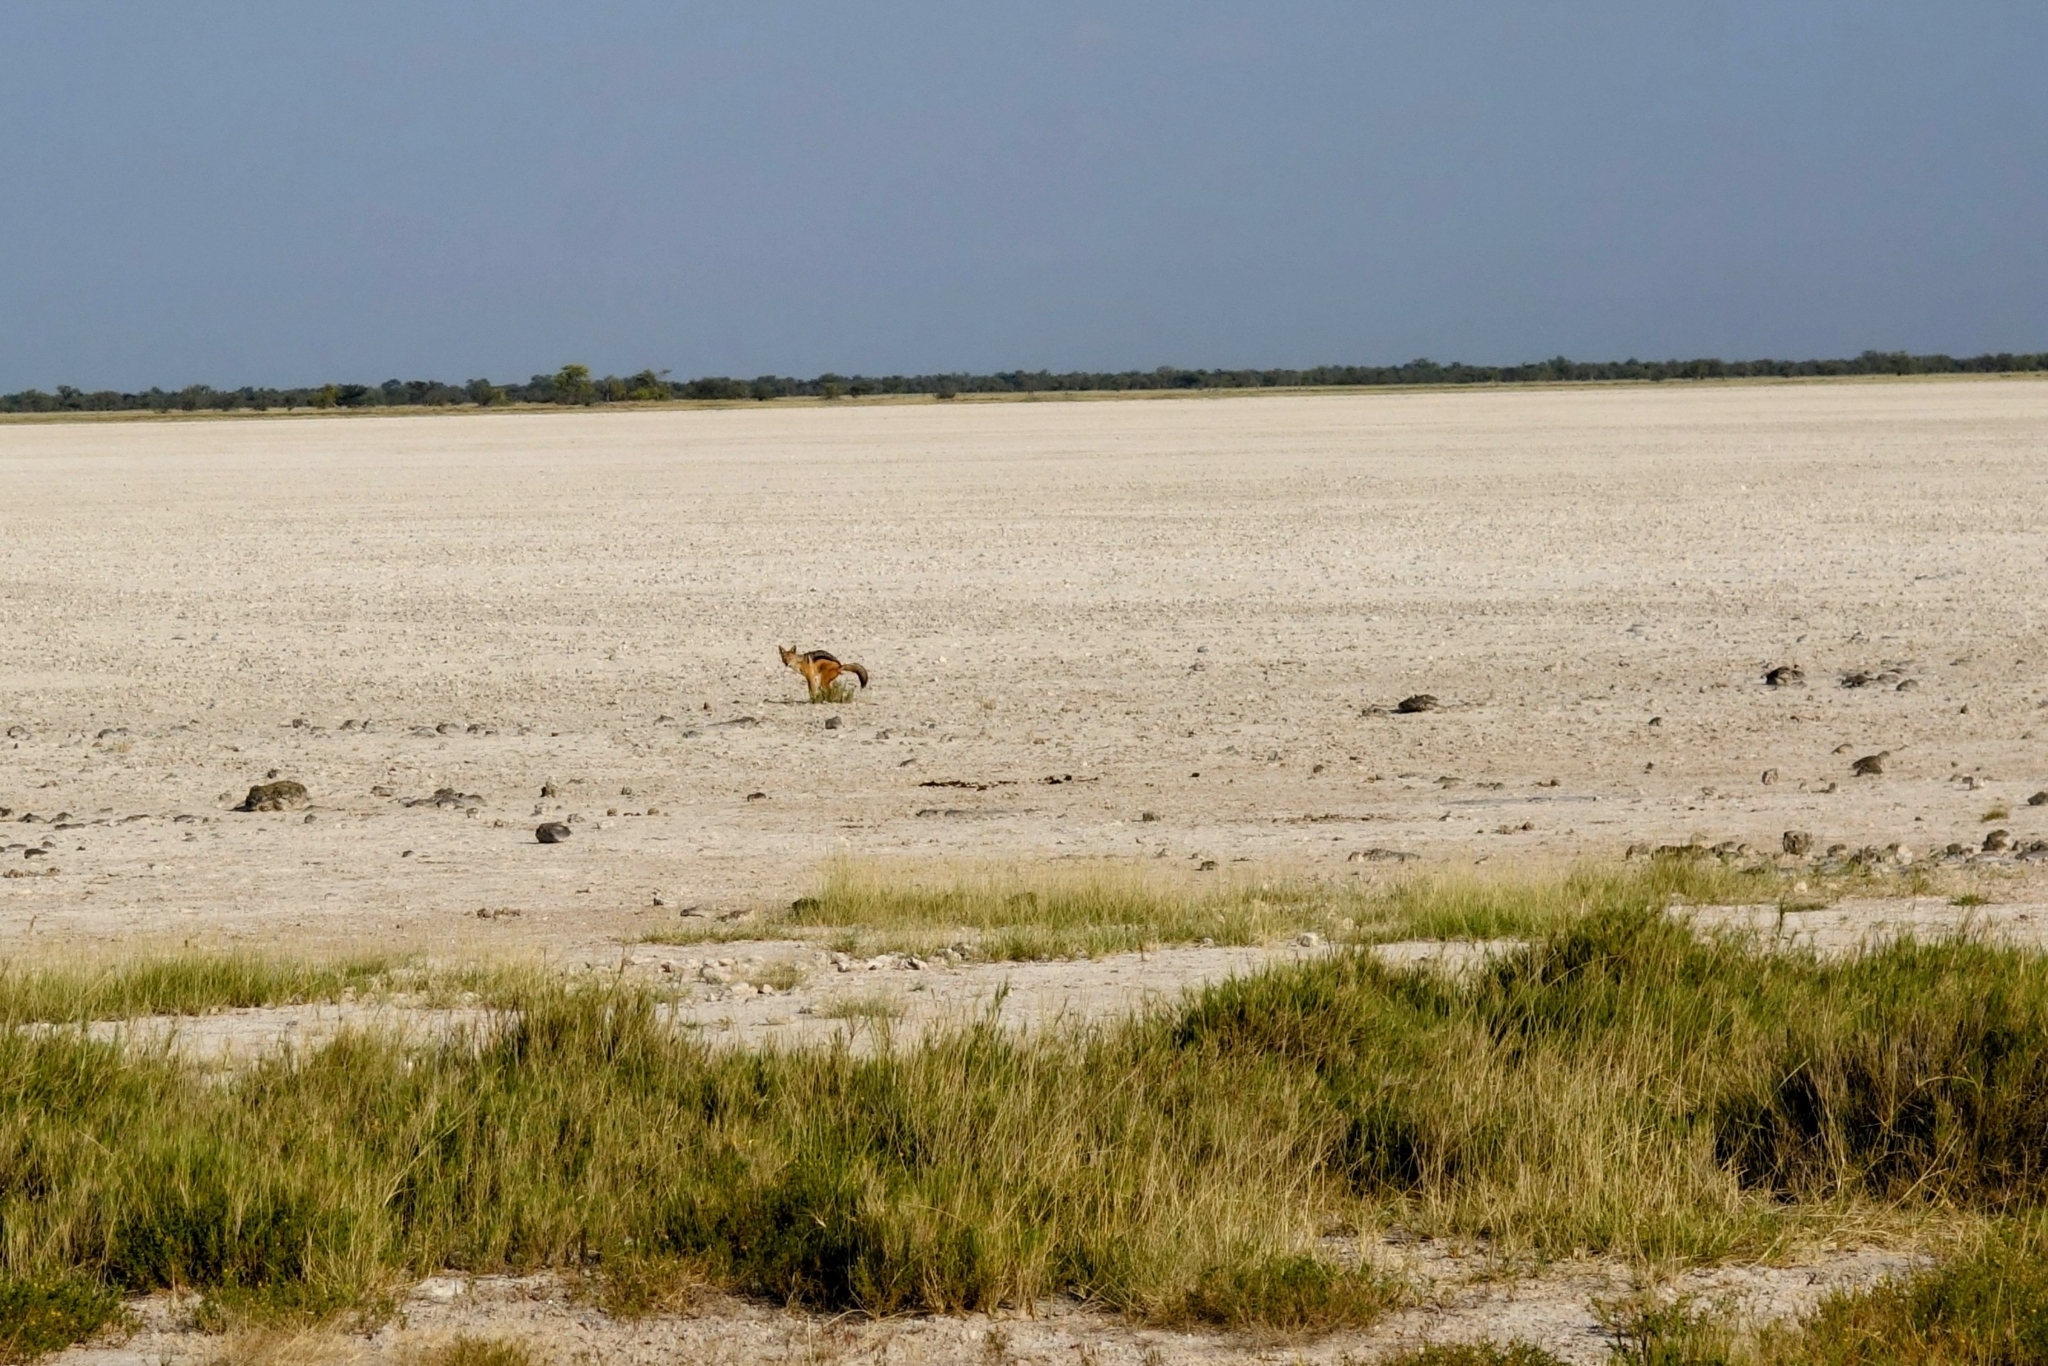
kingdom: Animalia
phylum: Chordata
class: Mammalia
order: Carnivora
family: Canidae
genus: Lupulella
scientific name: Lupulella
